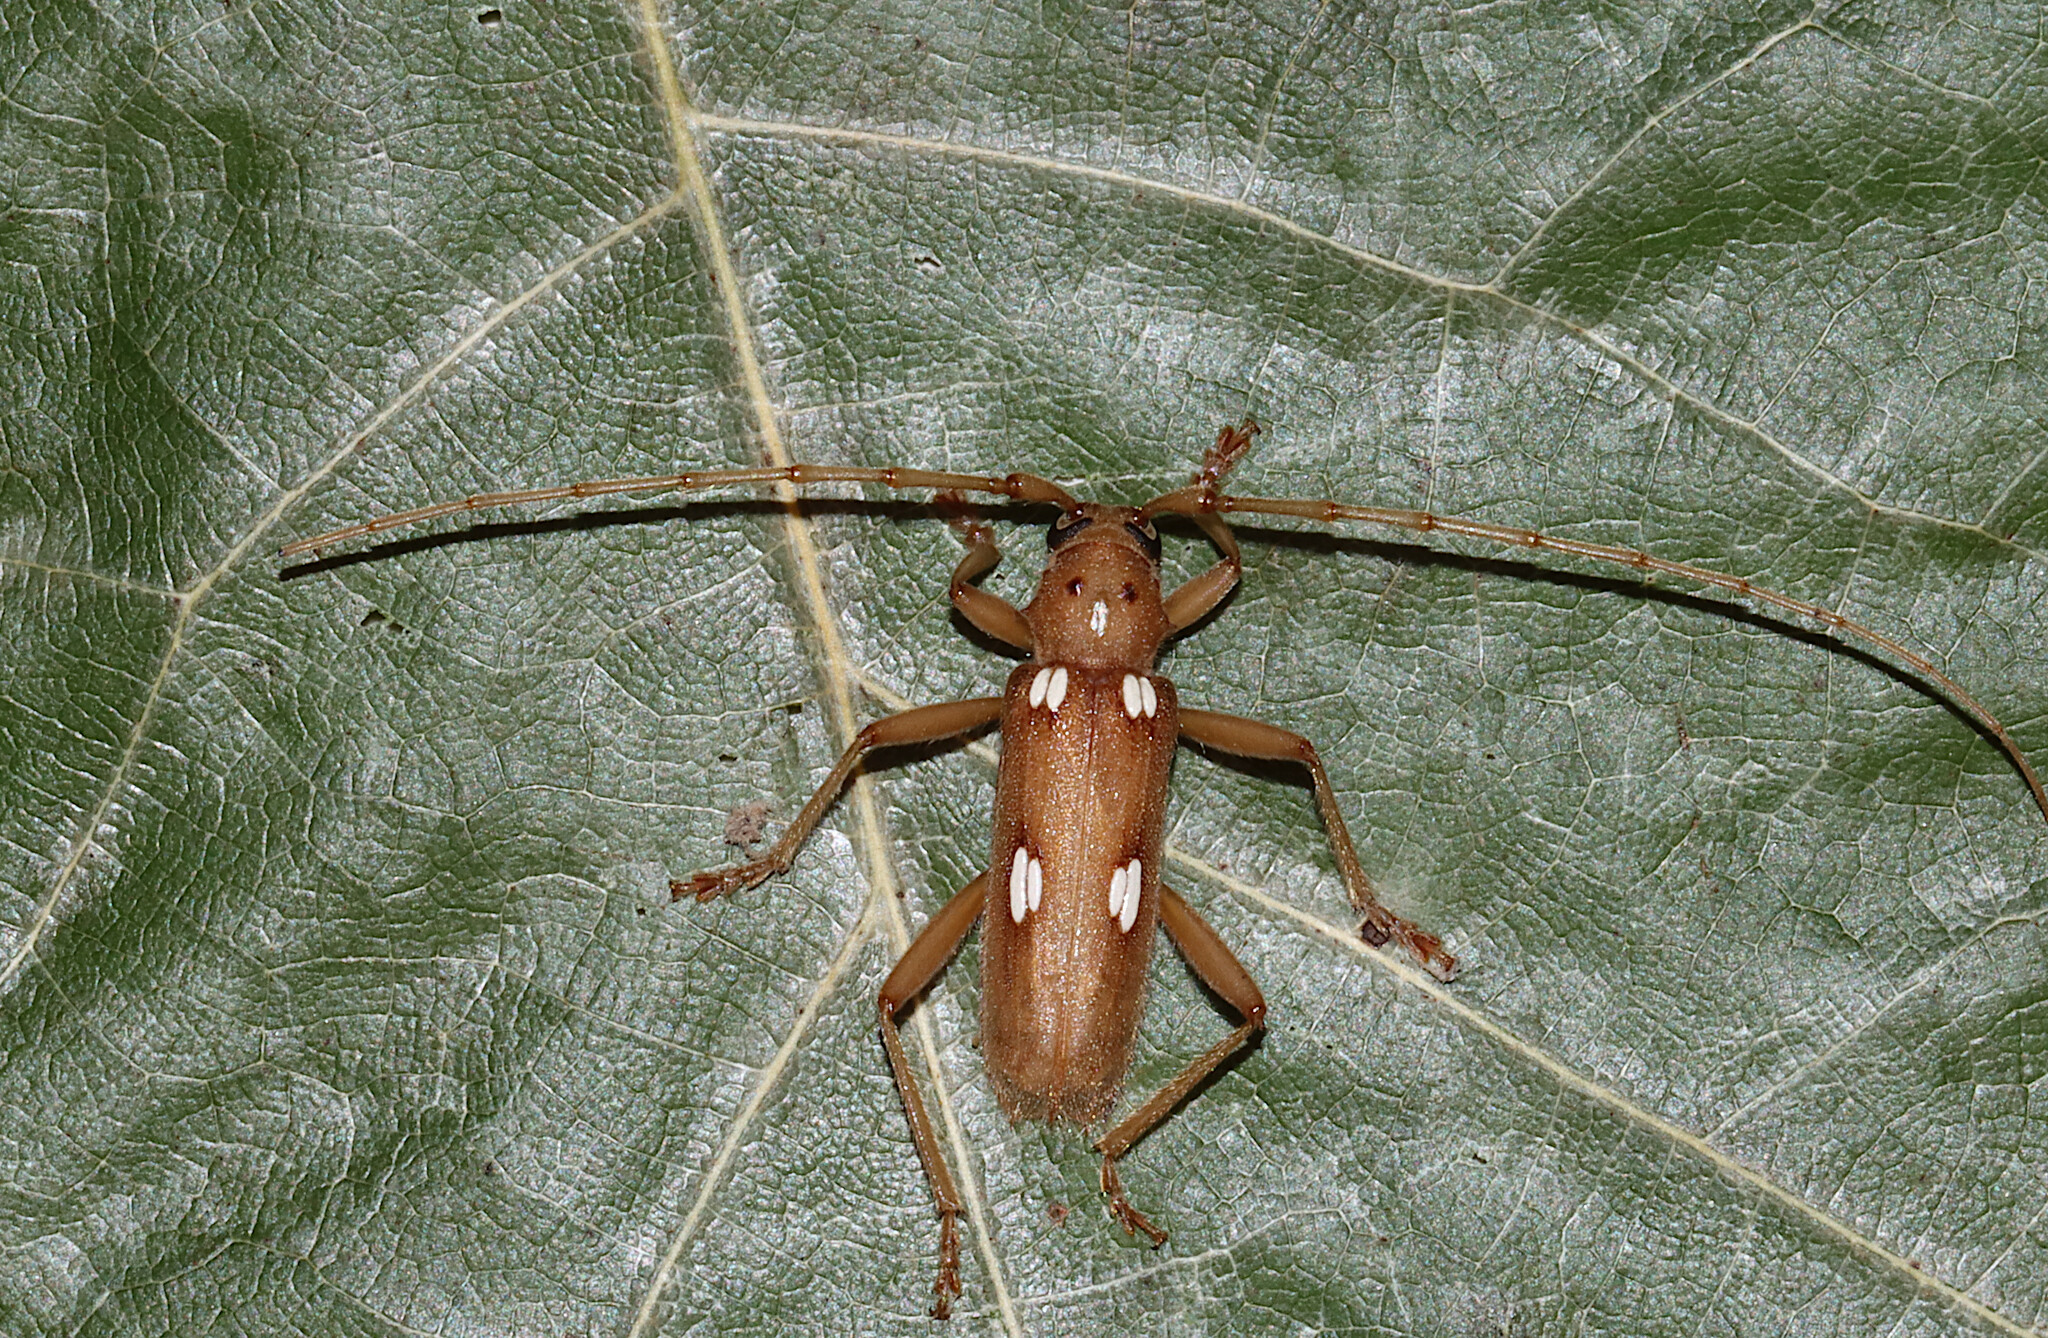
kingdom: Animalia
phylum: Arthropoda
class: Insecta
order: Coleoptera
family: Cerambycidae
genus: Eburia
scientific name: Eburia quadrigeminata
